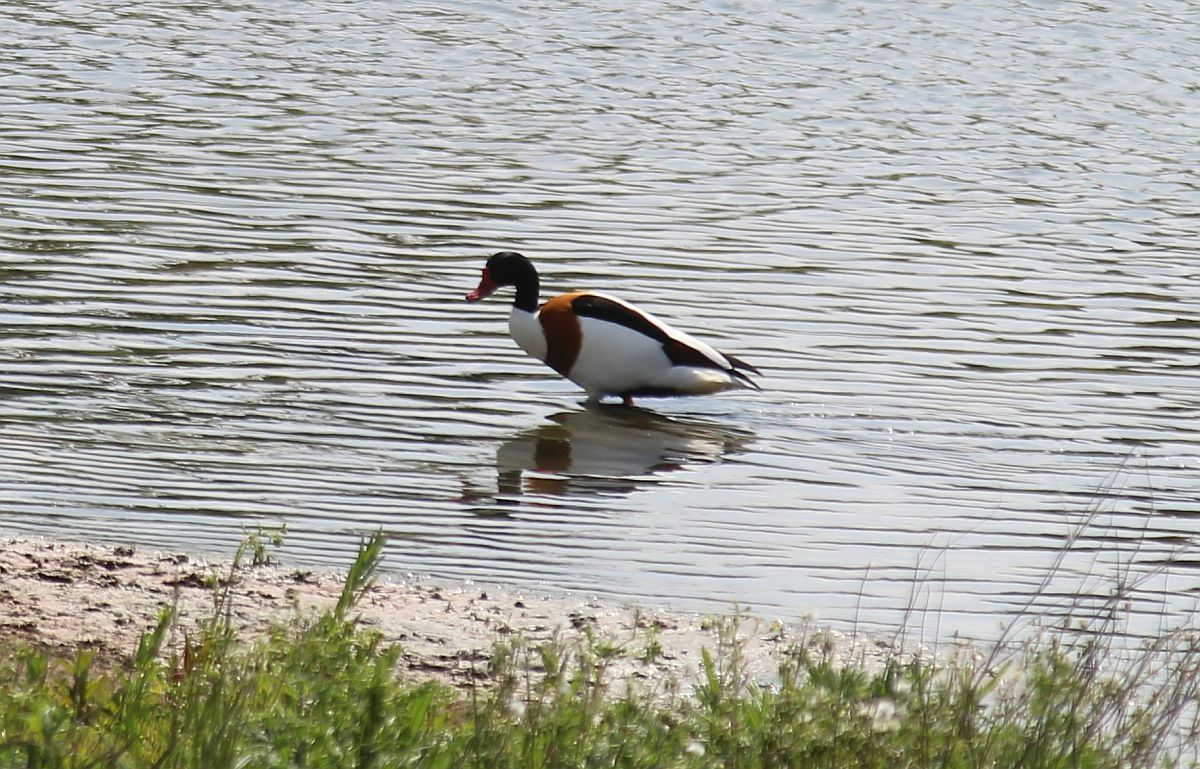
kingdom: Animalia
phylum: Chordata
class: Aves
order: Anseriformes
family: Anatidae
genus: Tadorna
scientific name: Tadorna tadorna
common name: Common shelduck
